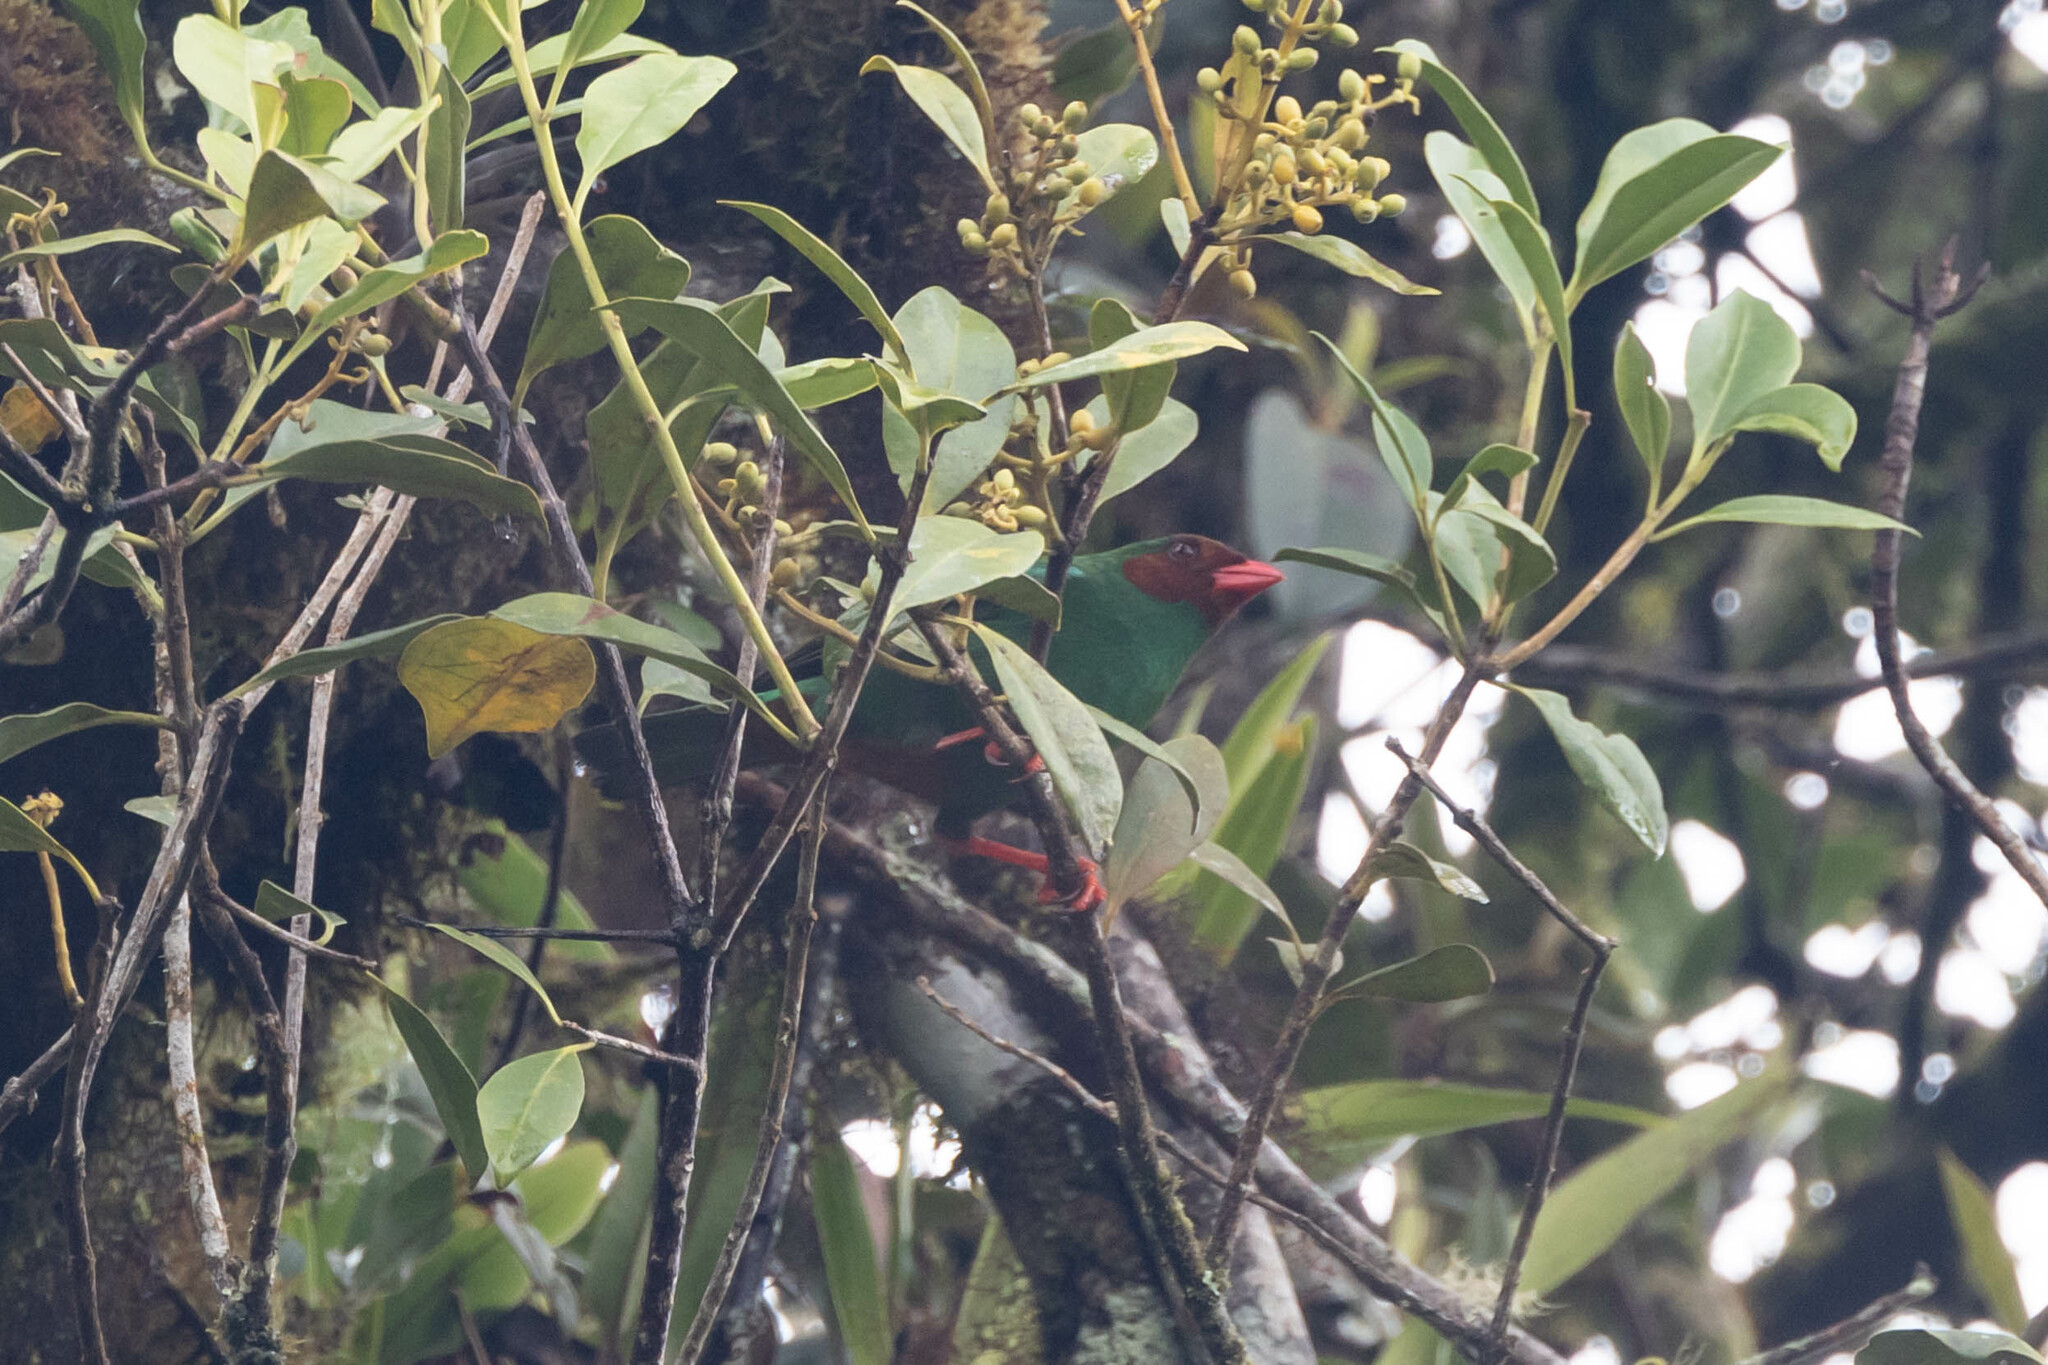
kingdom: Animalia
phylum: Chordata
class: Aves
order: Passeriformes
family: Thraupidae
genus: Chlorornis
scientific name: Chlorornis riefferii
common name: Grass-green tanager
